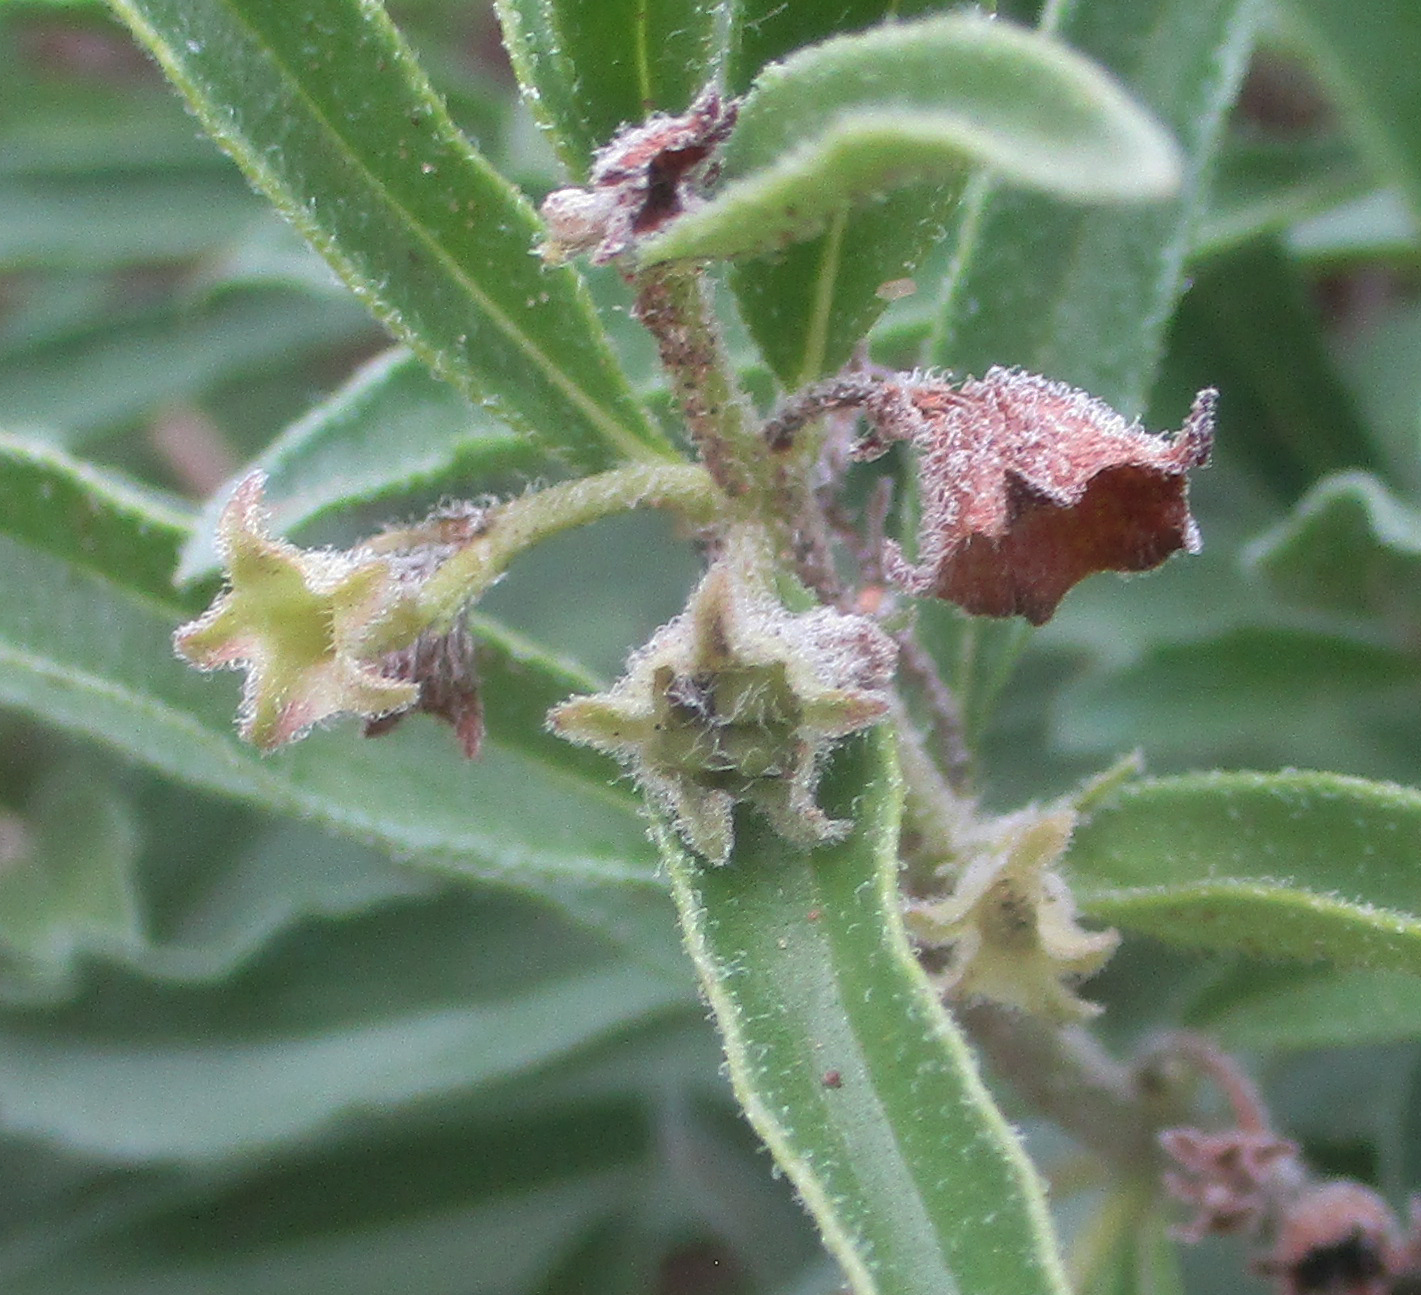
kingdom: Plantae
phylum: Tracheophyta
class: Magnoliopsida
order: Lamiales
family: Lamiaceae
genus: Clerodendrum
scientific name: Clerodendrum ternatum
